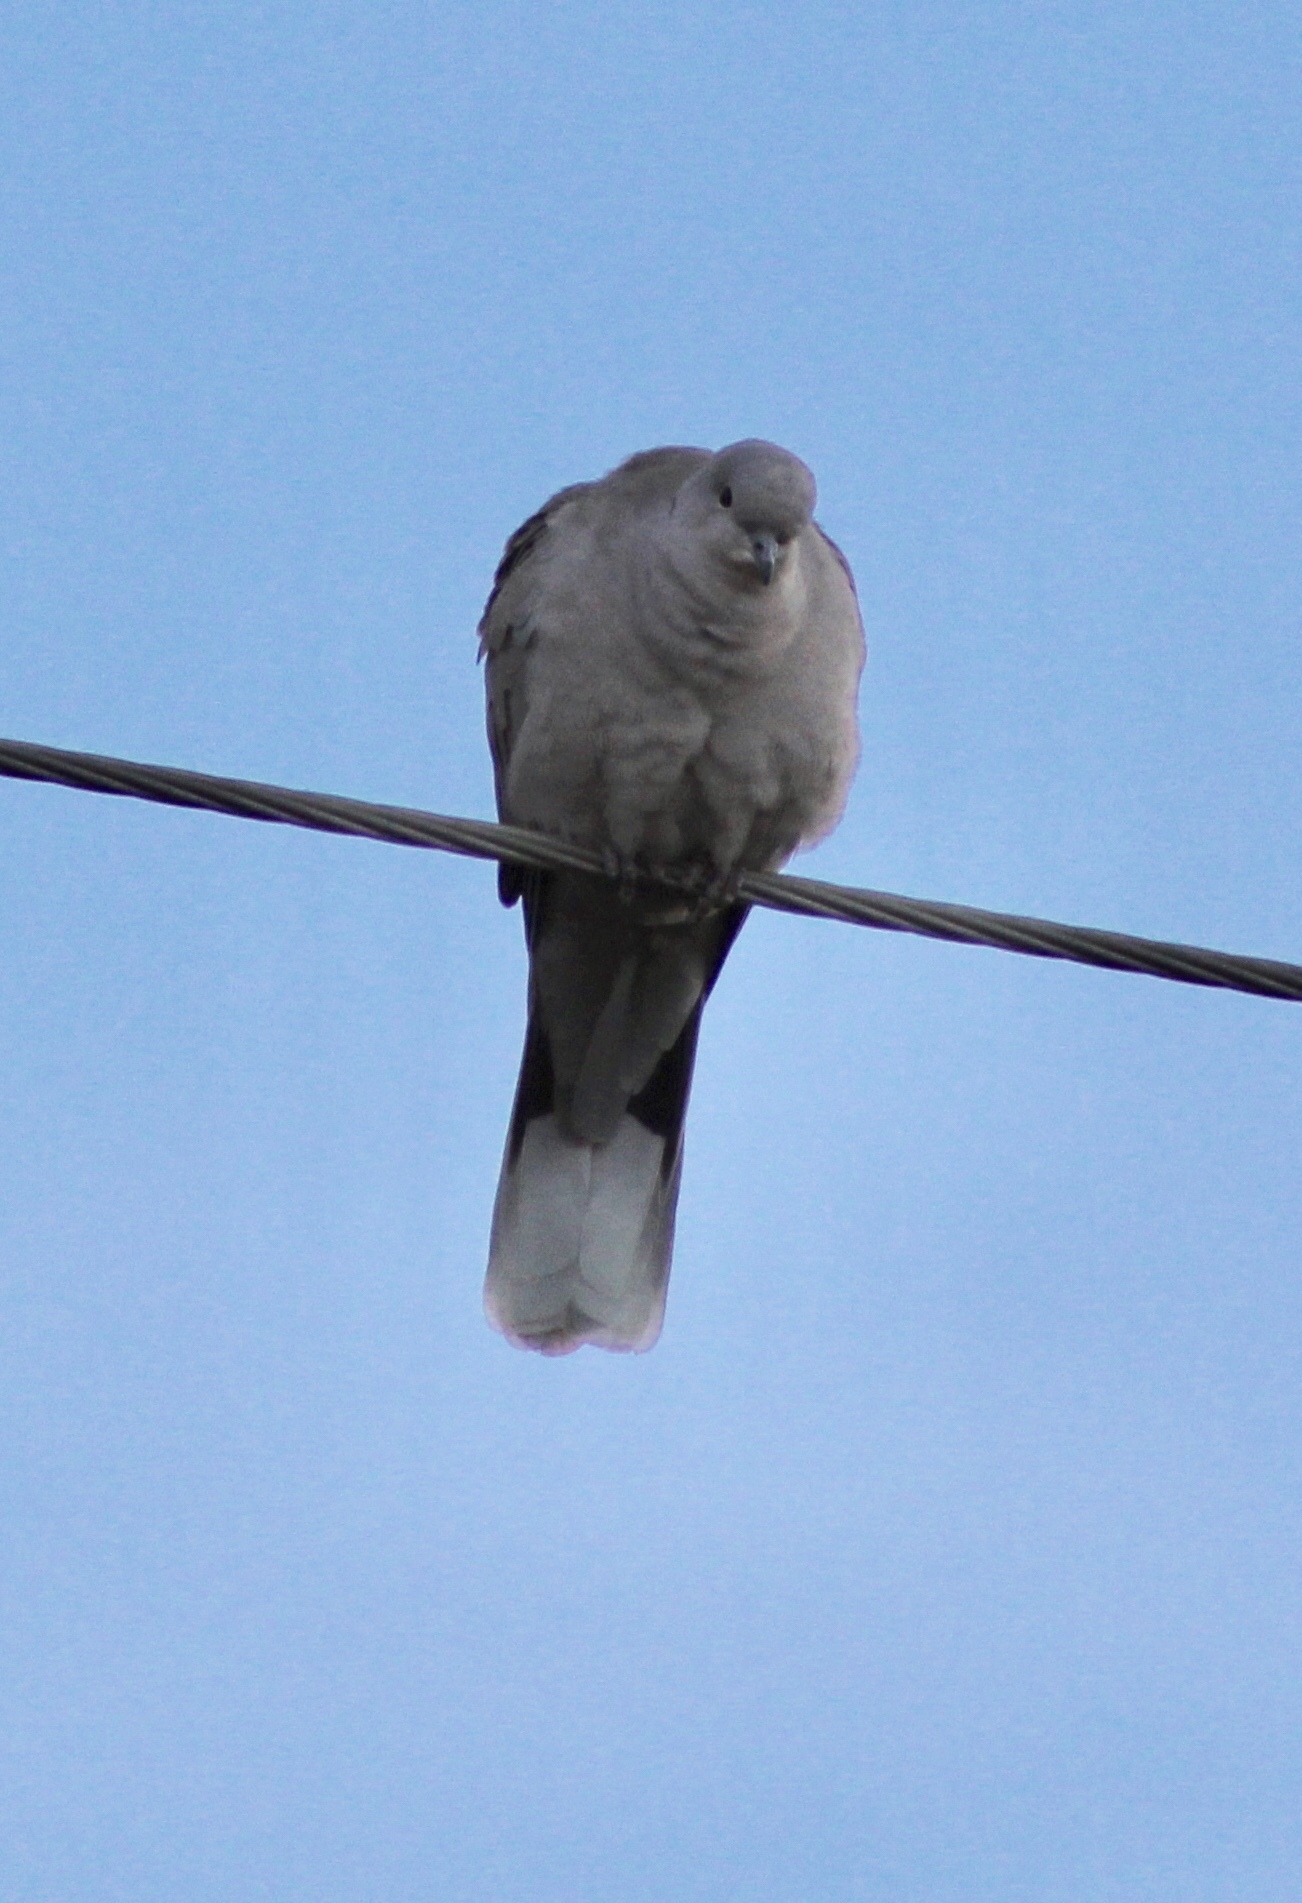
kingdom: Animalia
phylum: Chordata
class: Aves
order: Columbiformes
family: Columbidae
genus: Streptopelia
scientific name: Streptopelia decaocto
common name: Eurasian collared dove
